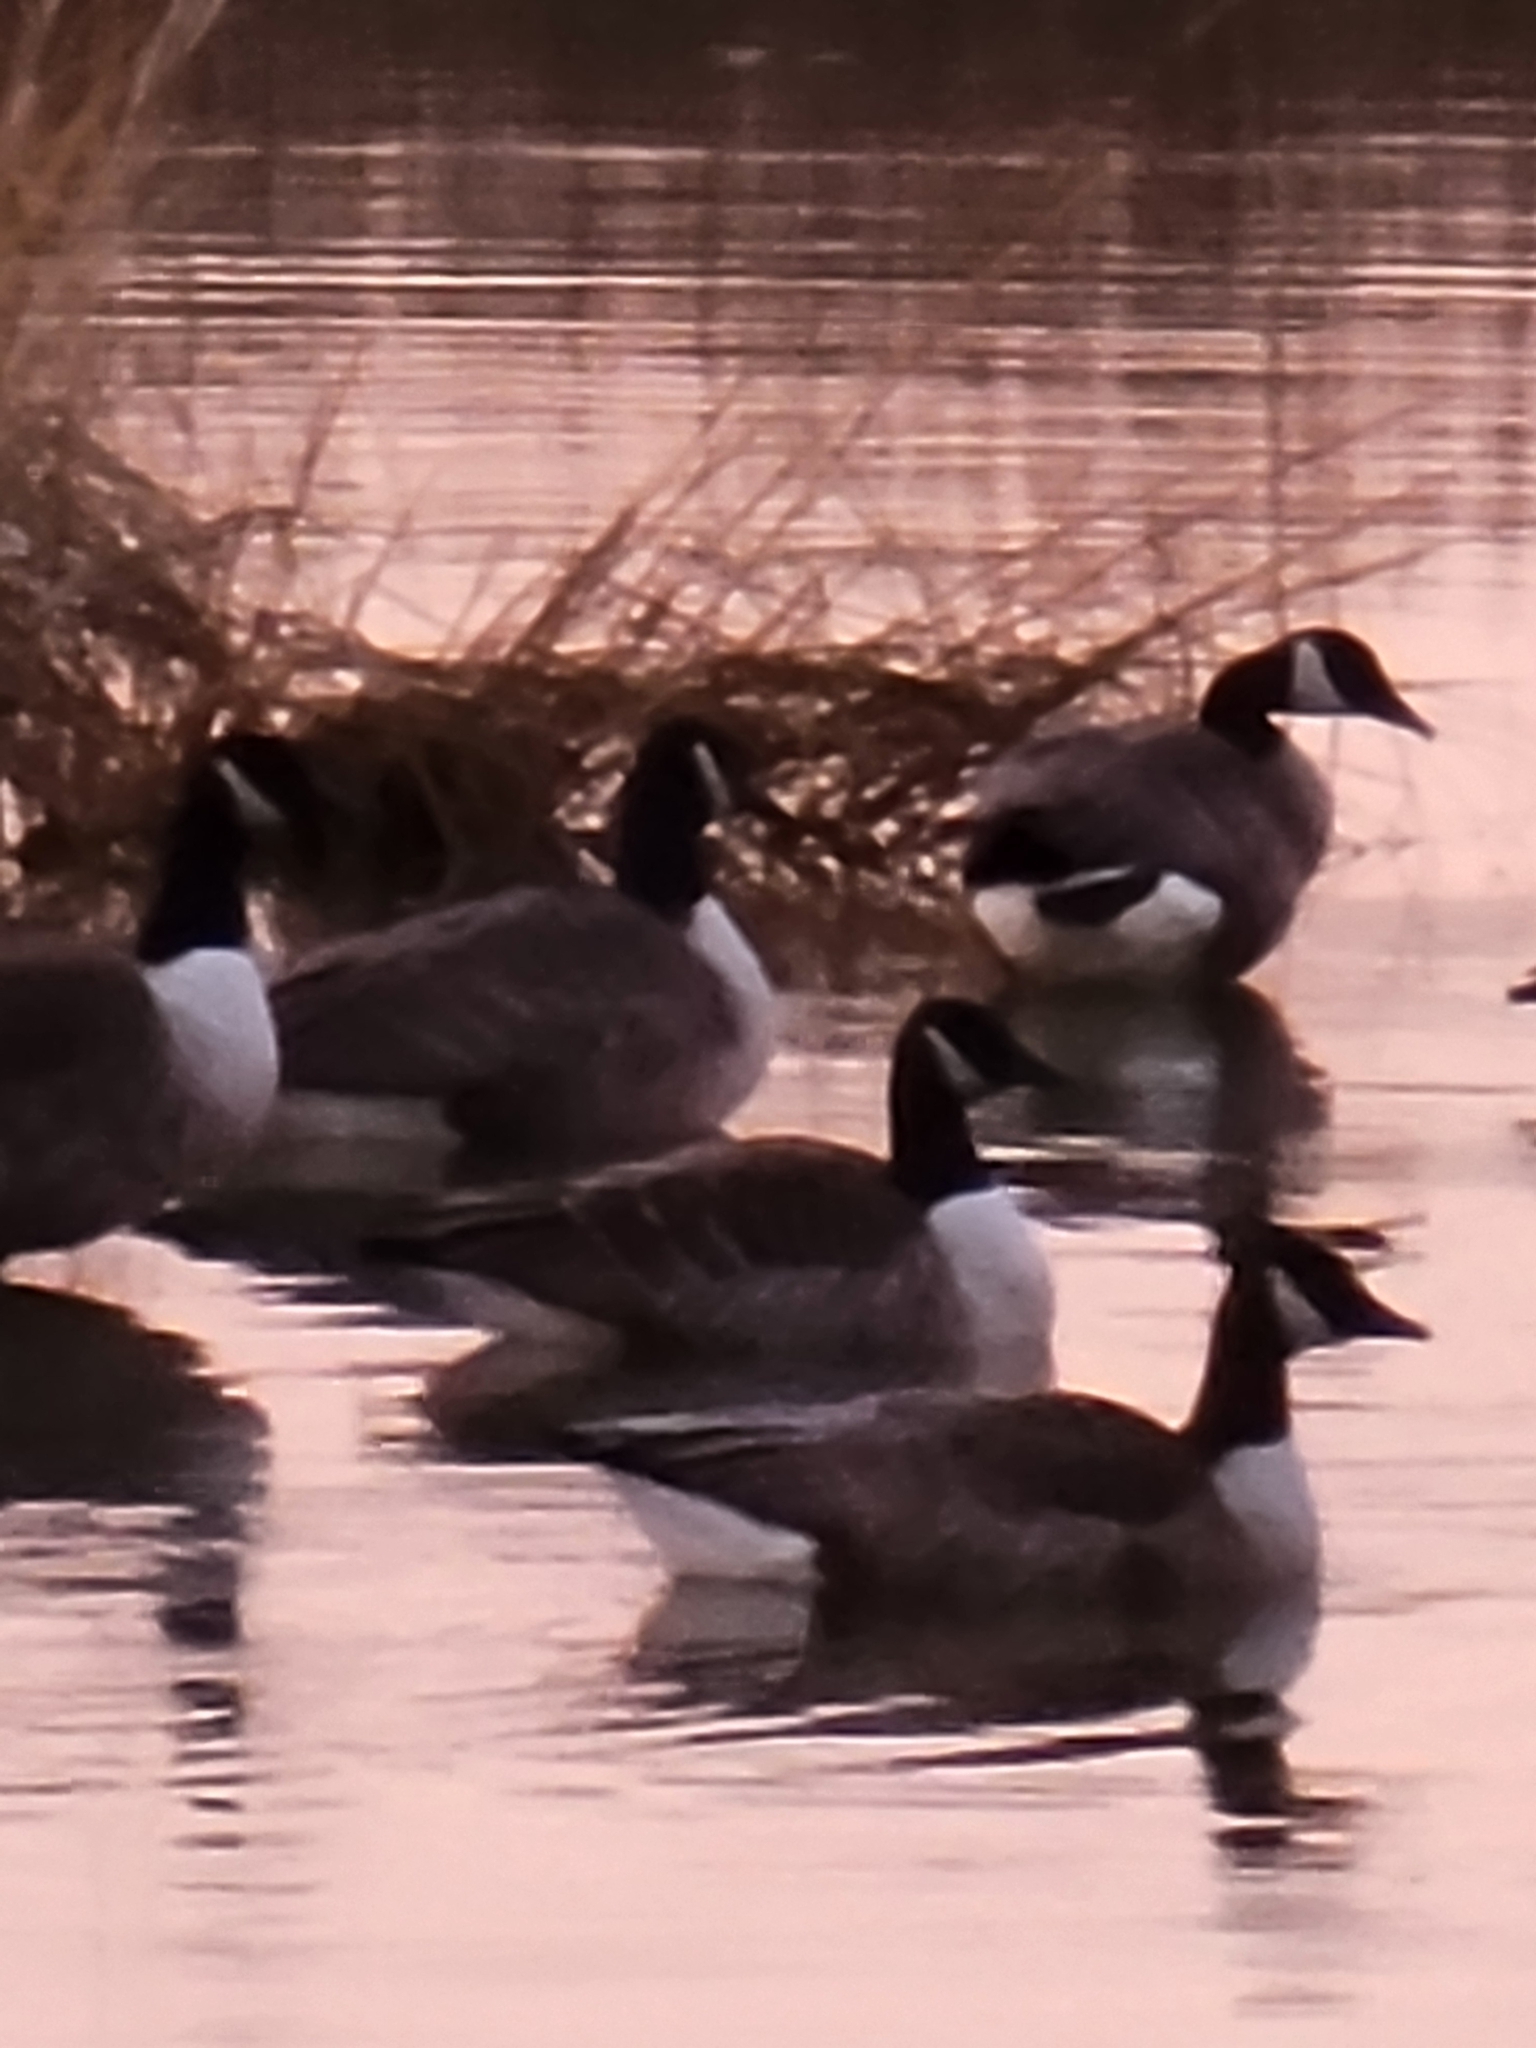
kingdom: Animalia
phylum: Chordata
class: Aves
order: Anseriformes
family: Anatidae
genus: Branta
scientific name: Branta canadensis
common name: Canada goose
